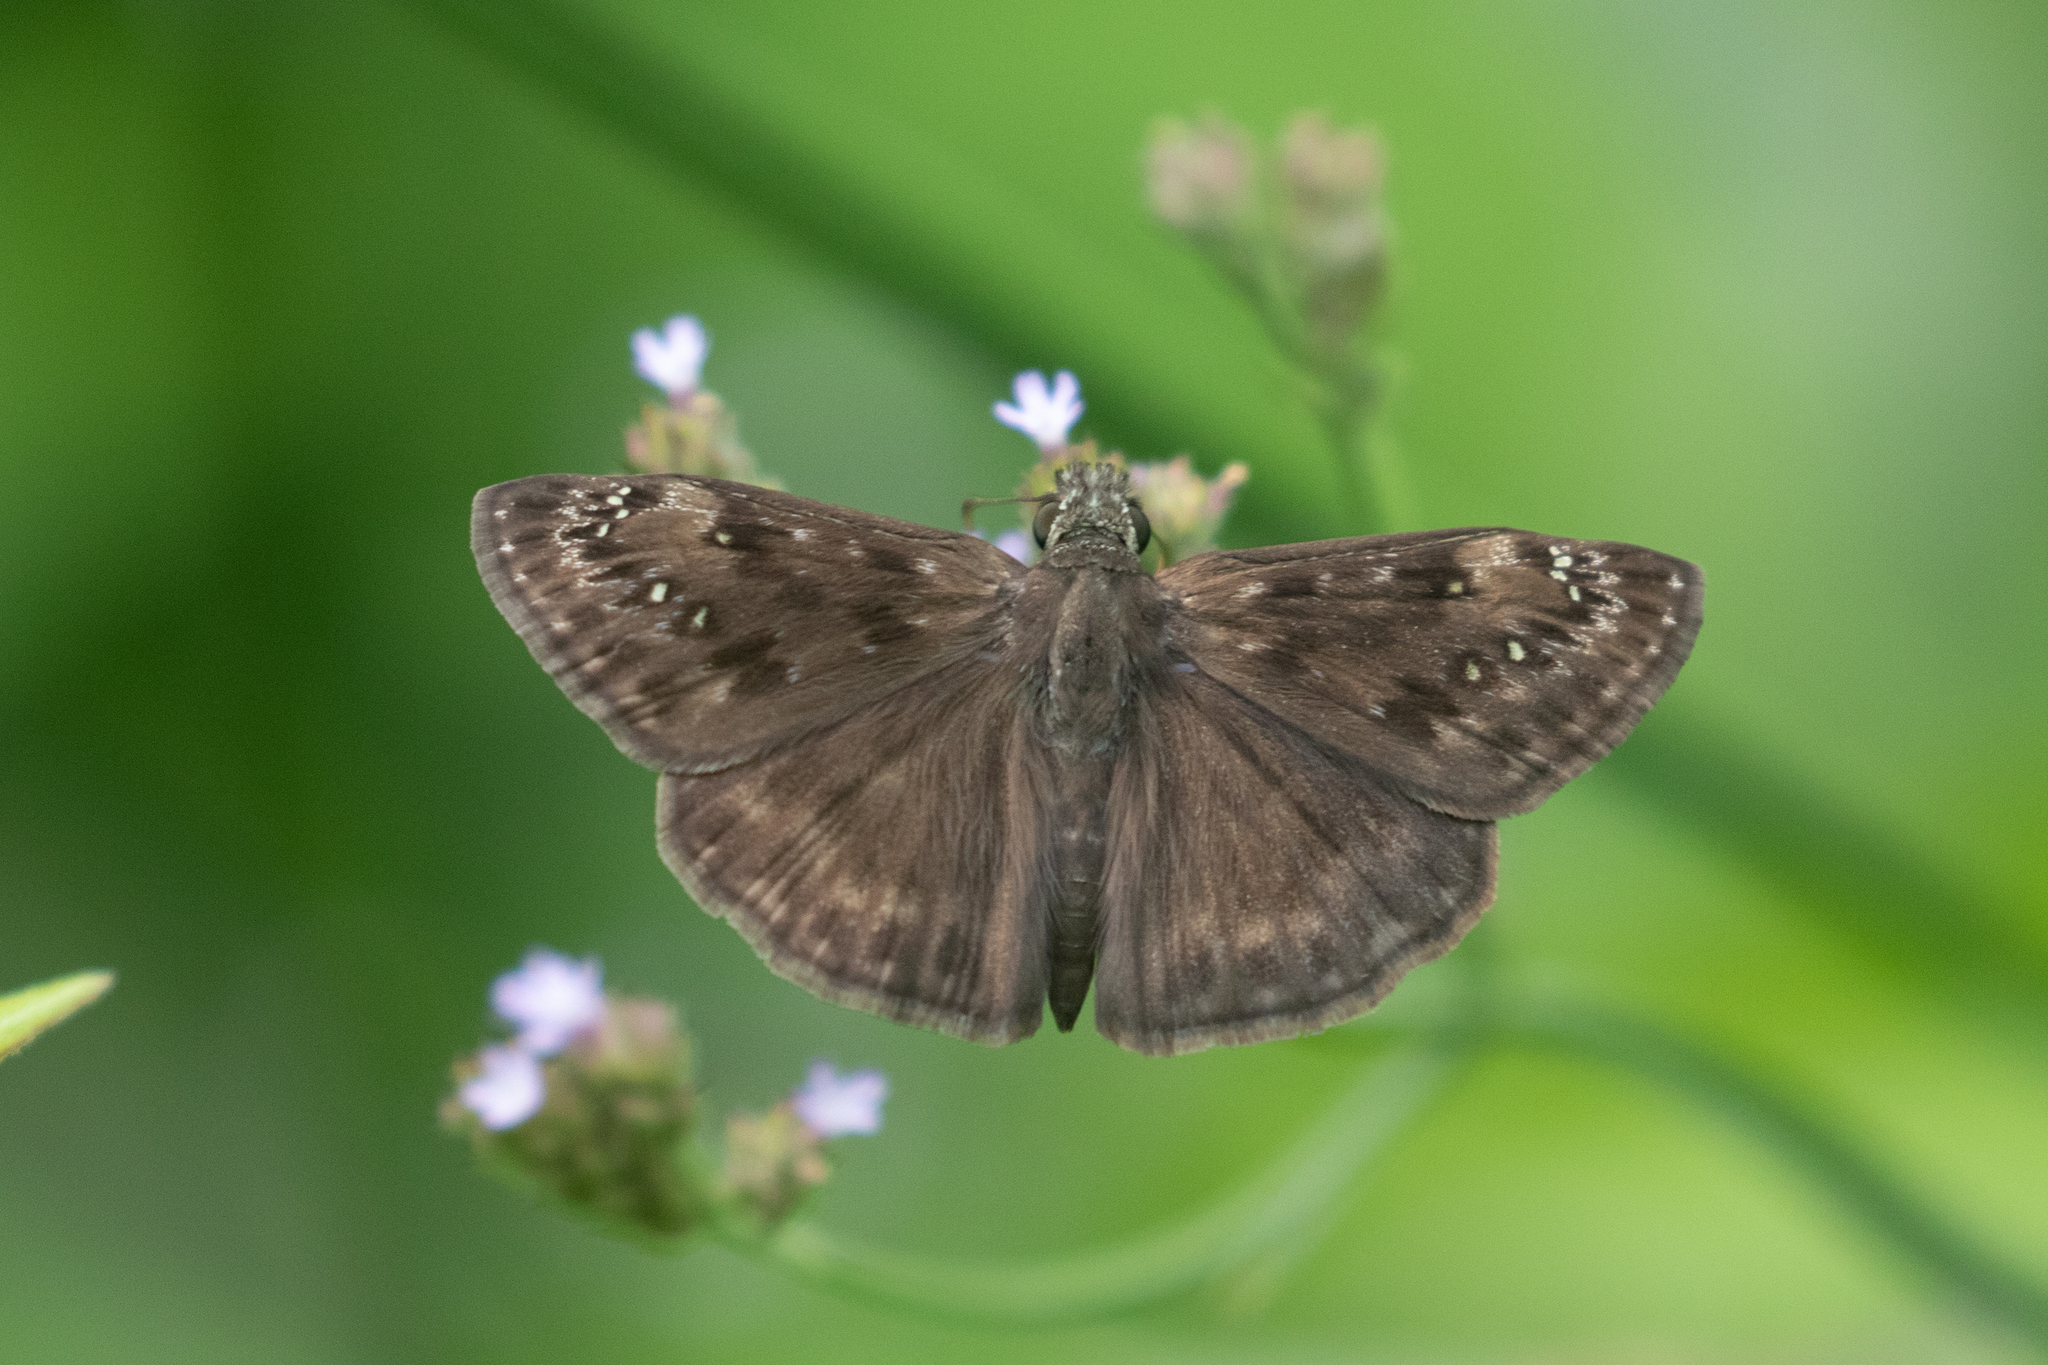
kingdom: Animalia
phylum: Arthropoda
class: Insecta
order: Lepidoptera
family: Hesperiidae
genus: Erynnis
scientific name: Erynnis horatius
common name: Horace's duskywing
